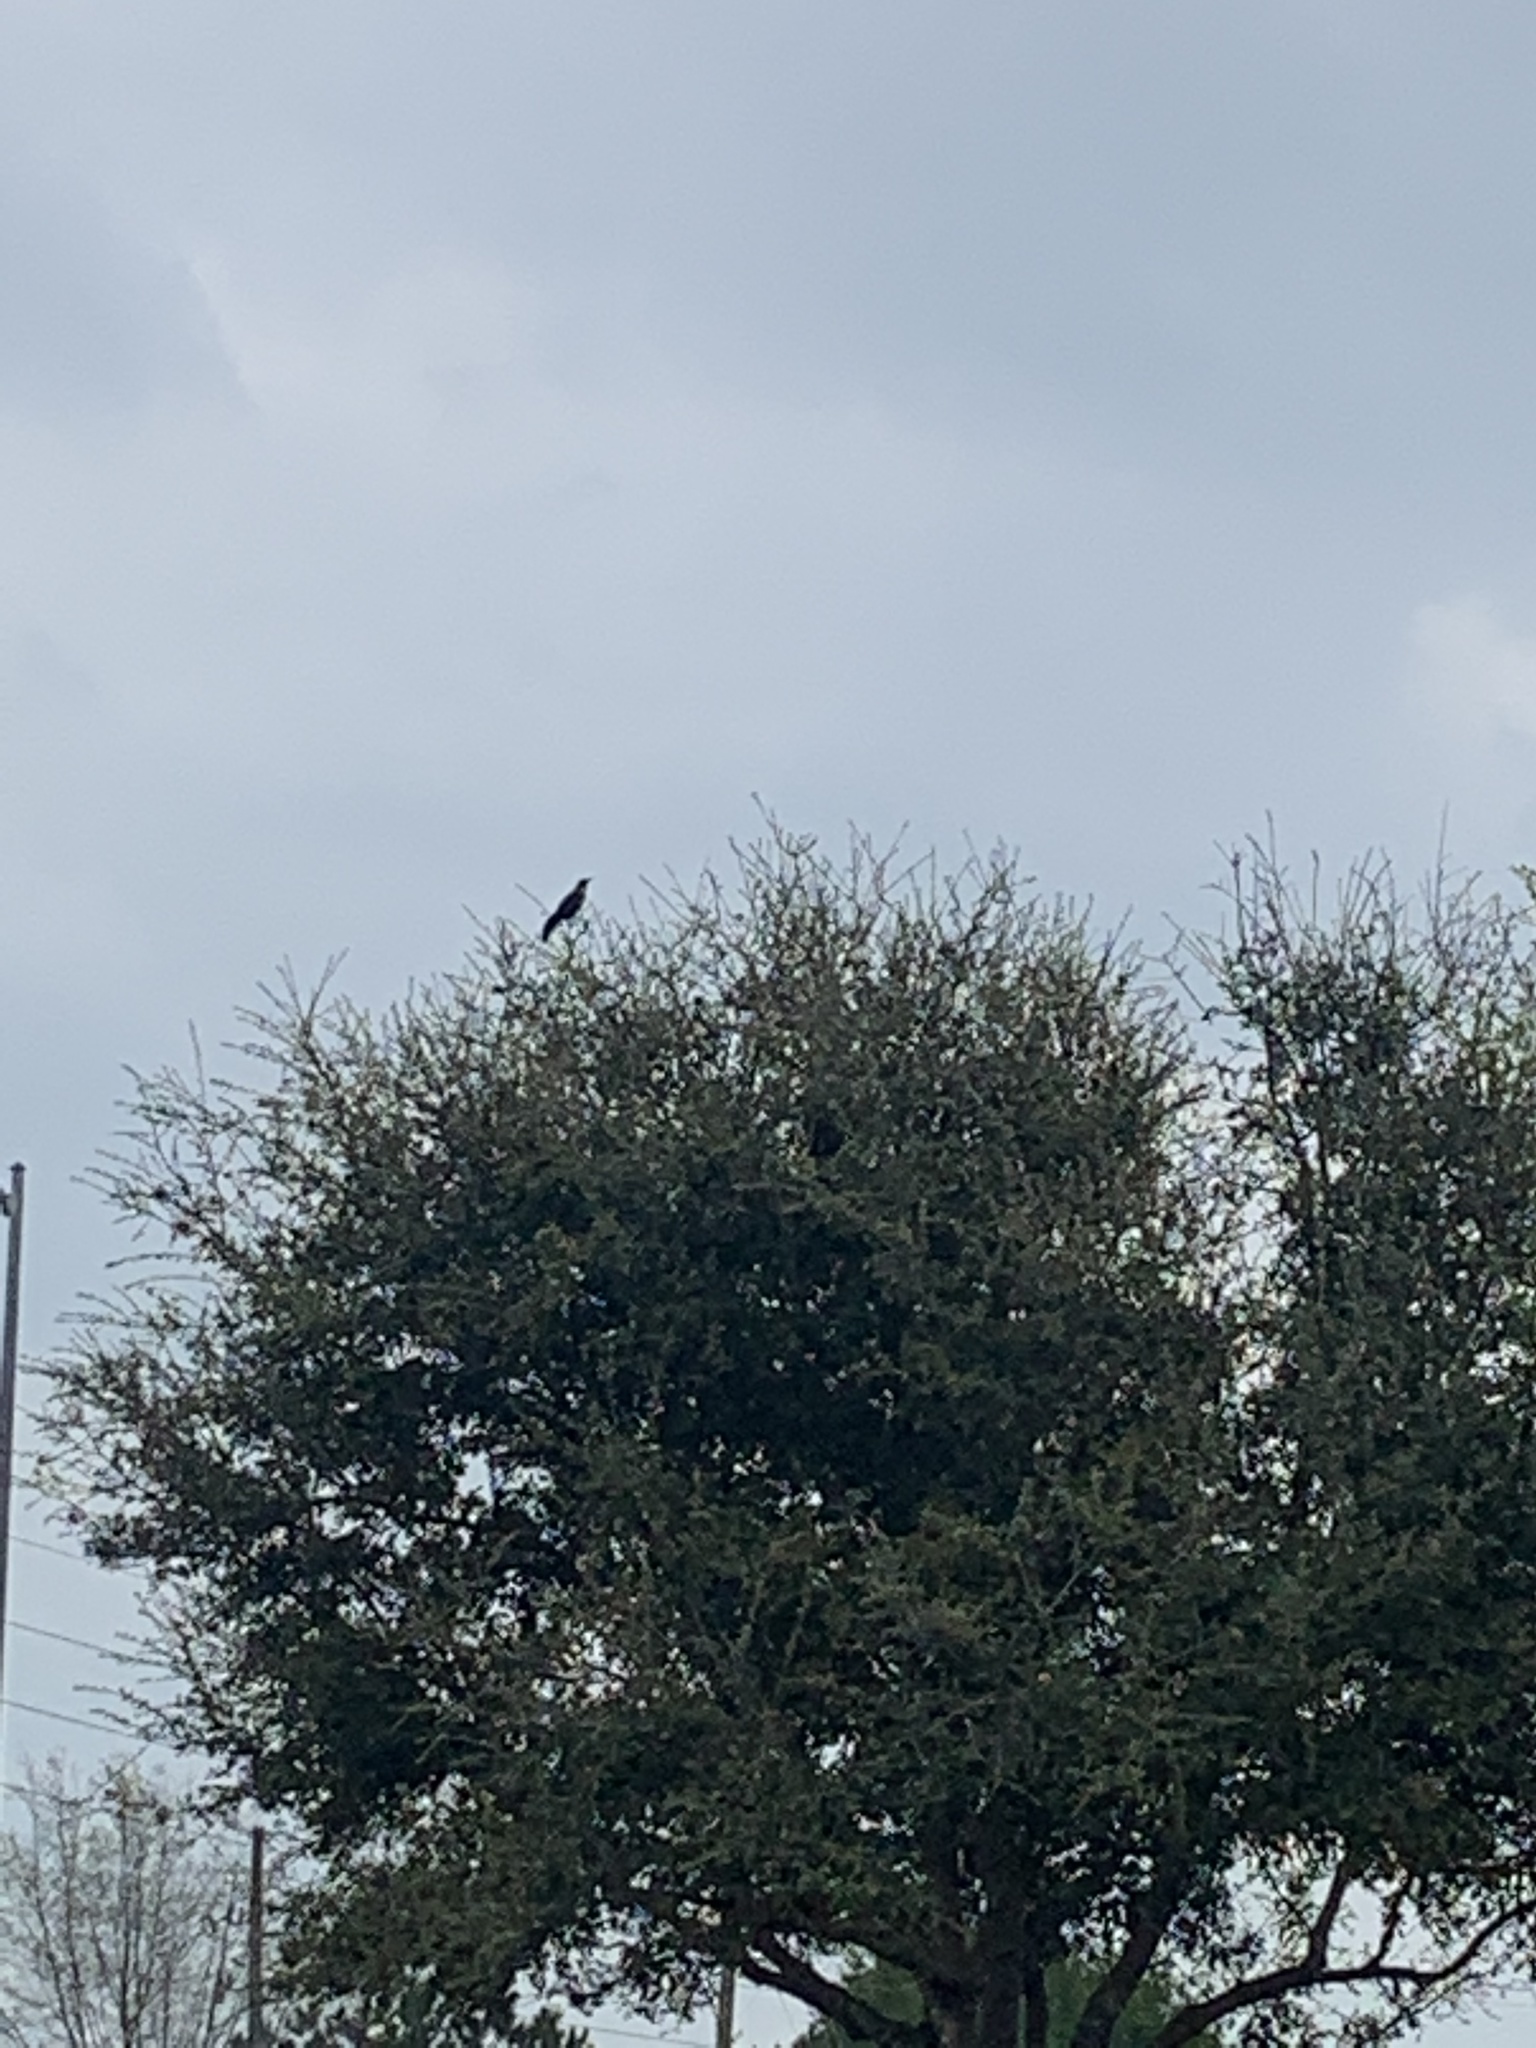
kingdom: Animalia
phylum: Chordata
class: Aves
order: Passeriformes
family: Icteridae
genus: Quiscalus
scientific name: Quiscalus mexicanus
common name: Great-tailed grackle
